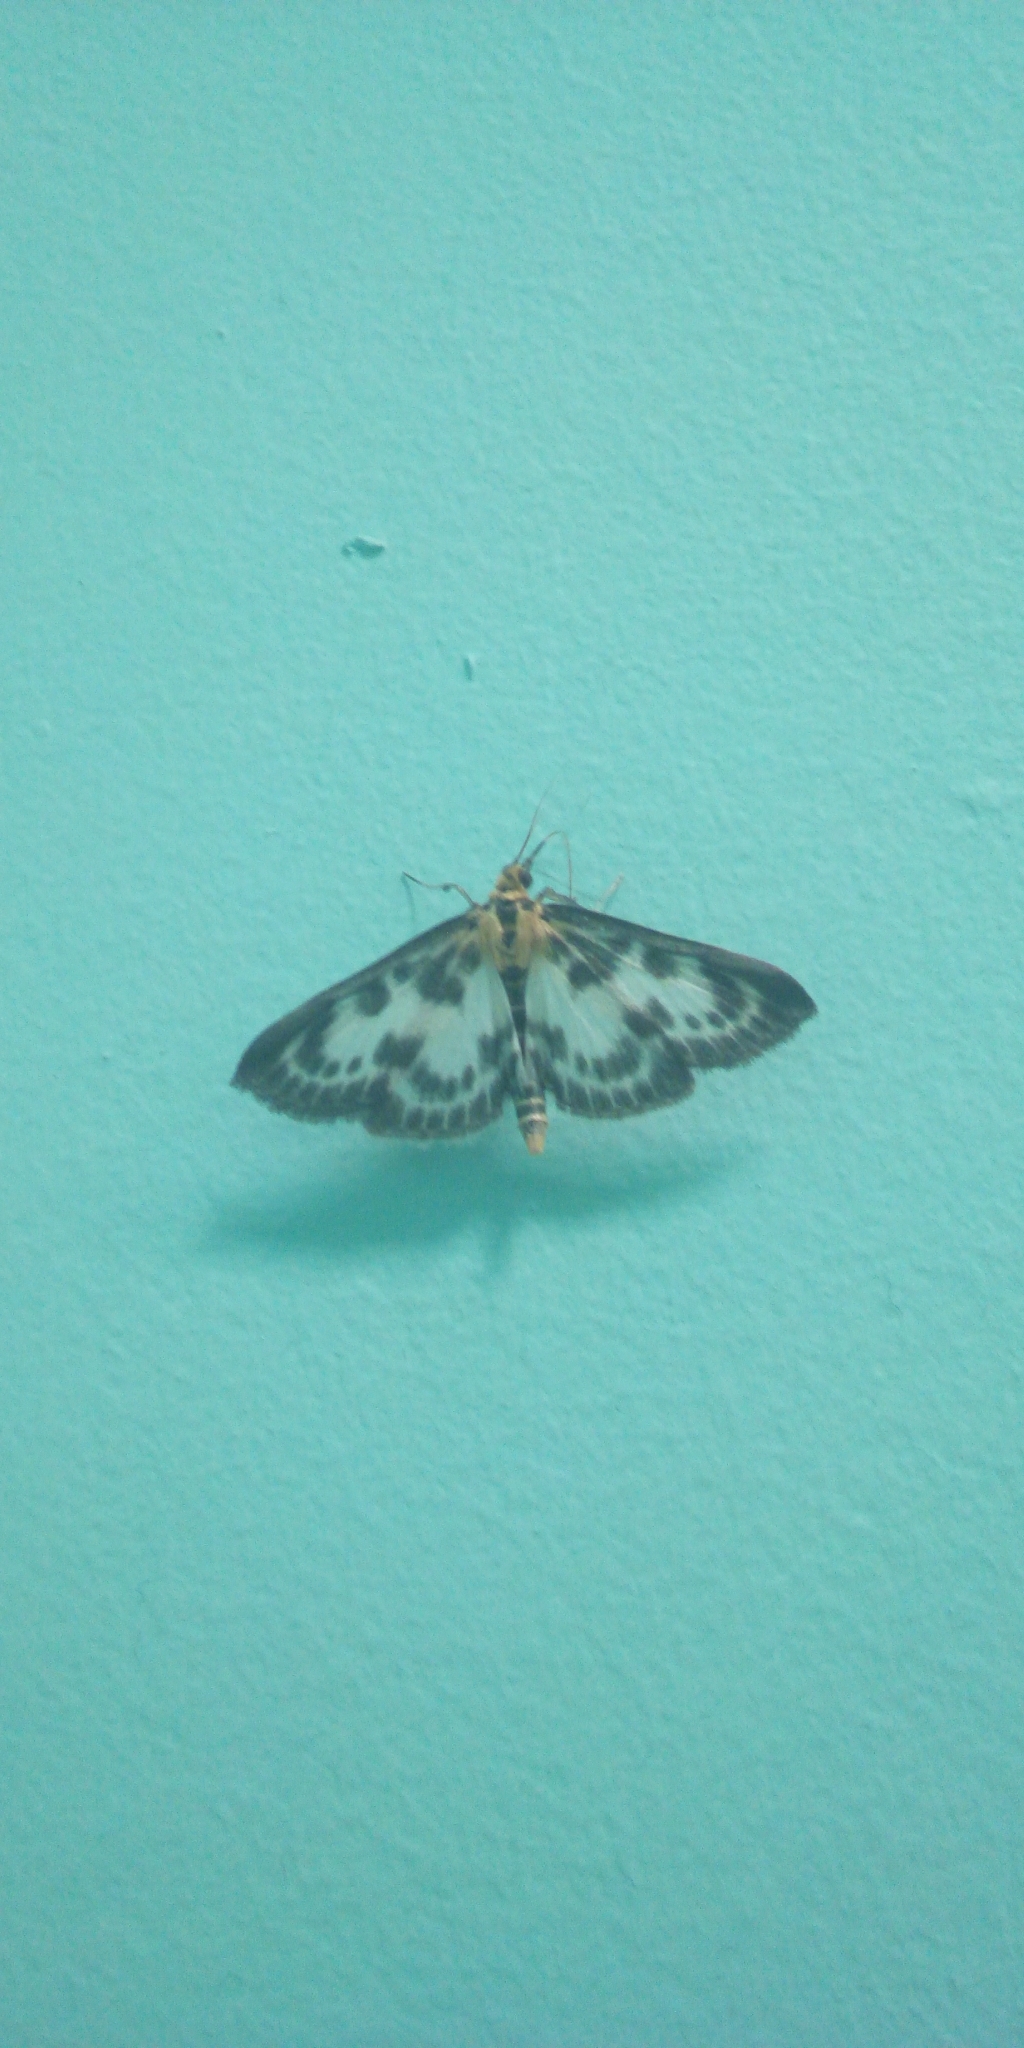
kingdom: Animalia
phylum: Arthropoda
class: Insecta
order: Lepidoptera
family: Crambidae
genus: Anania
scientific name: Anania hortulata
